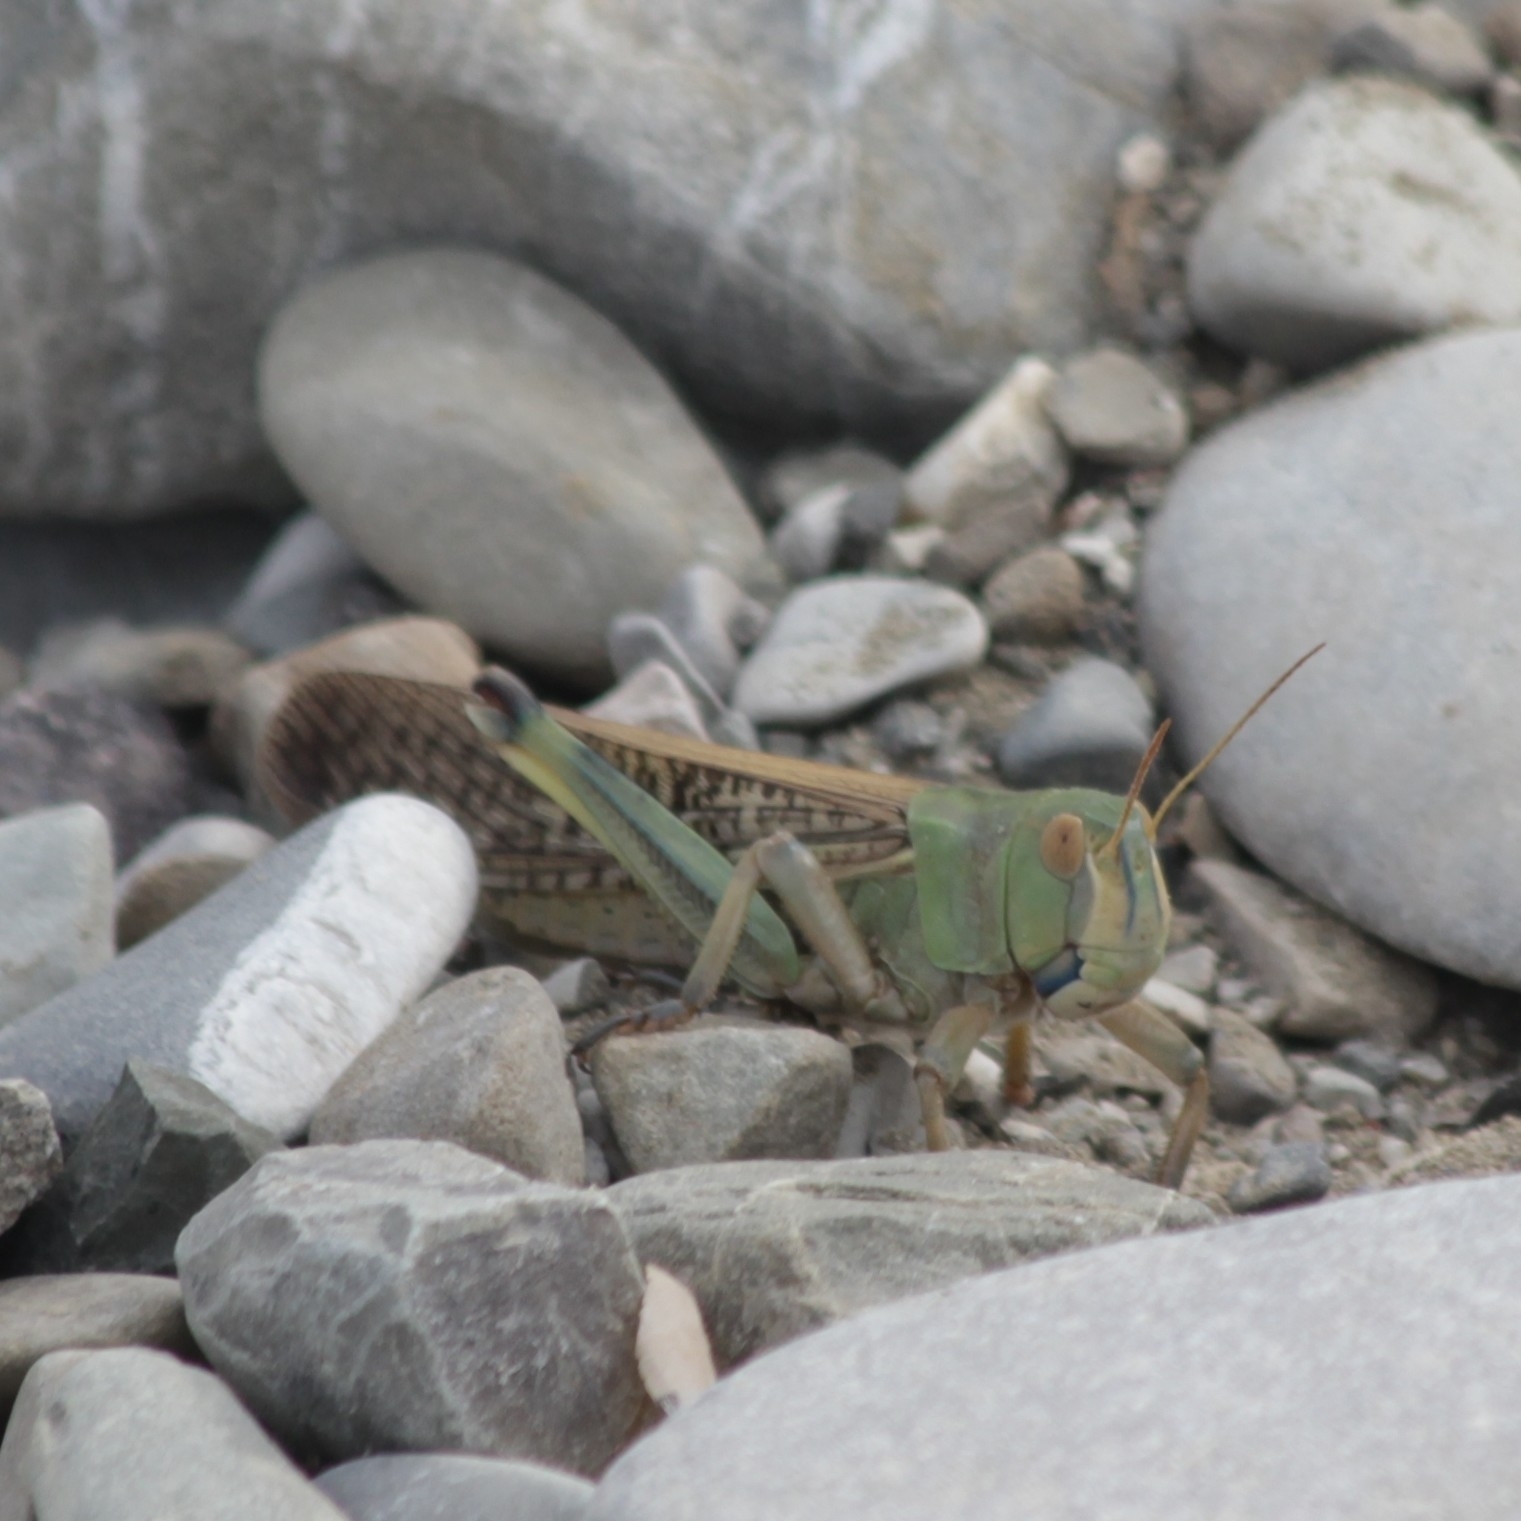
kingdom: Animalia
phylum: Arthropoda
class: Insecta
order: Orthoptera
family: Acrididae
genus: Locusta
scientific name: Locusta migratoria
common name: Migratory locust
